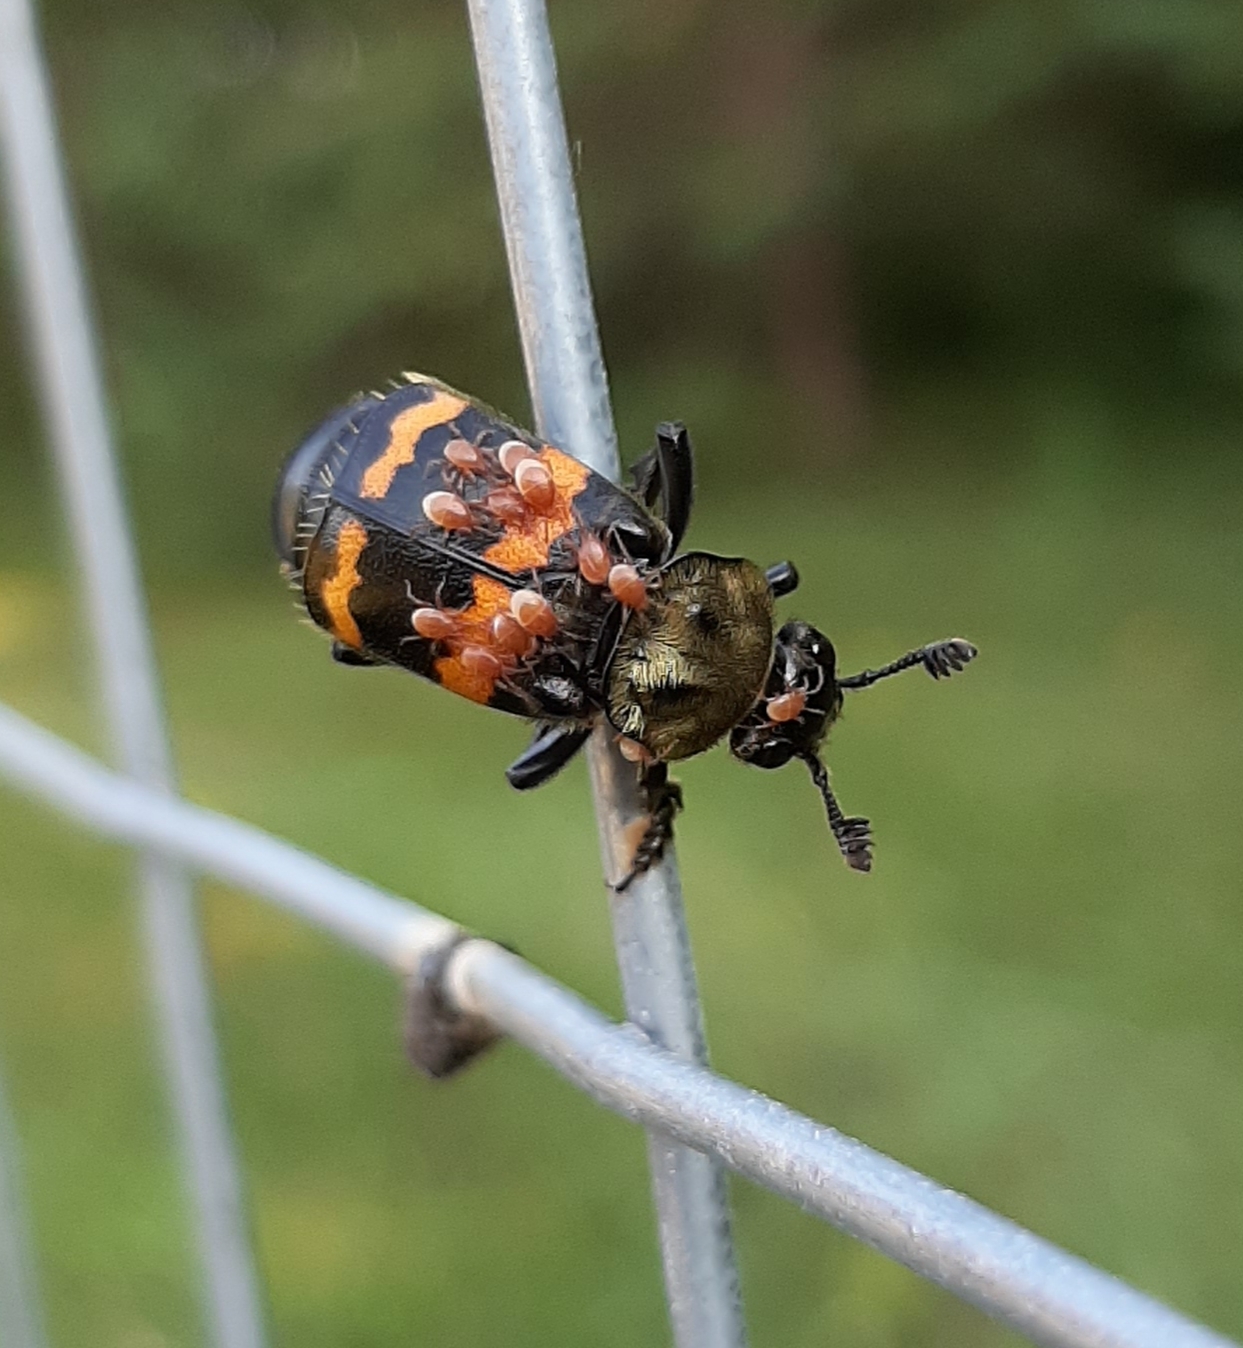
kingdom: Animalia
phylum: Arthropoda
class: Insecta
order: Coleoptera
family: Staphylinidae
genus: Nicrophorus
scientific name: Nicrophorus tomentosus
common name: Tomentose burying beetle
